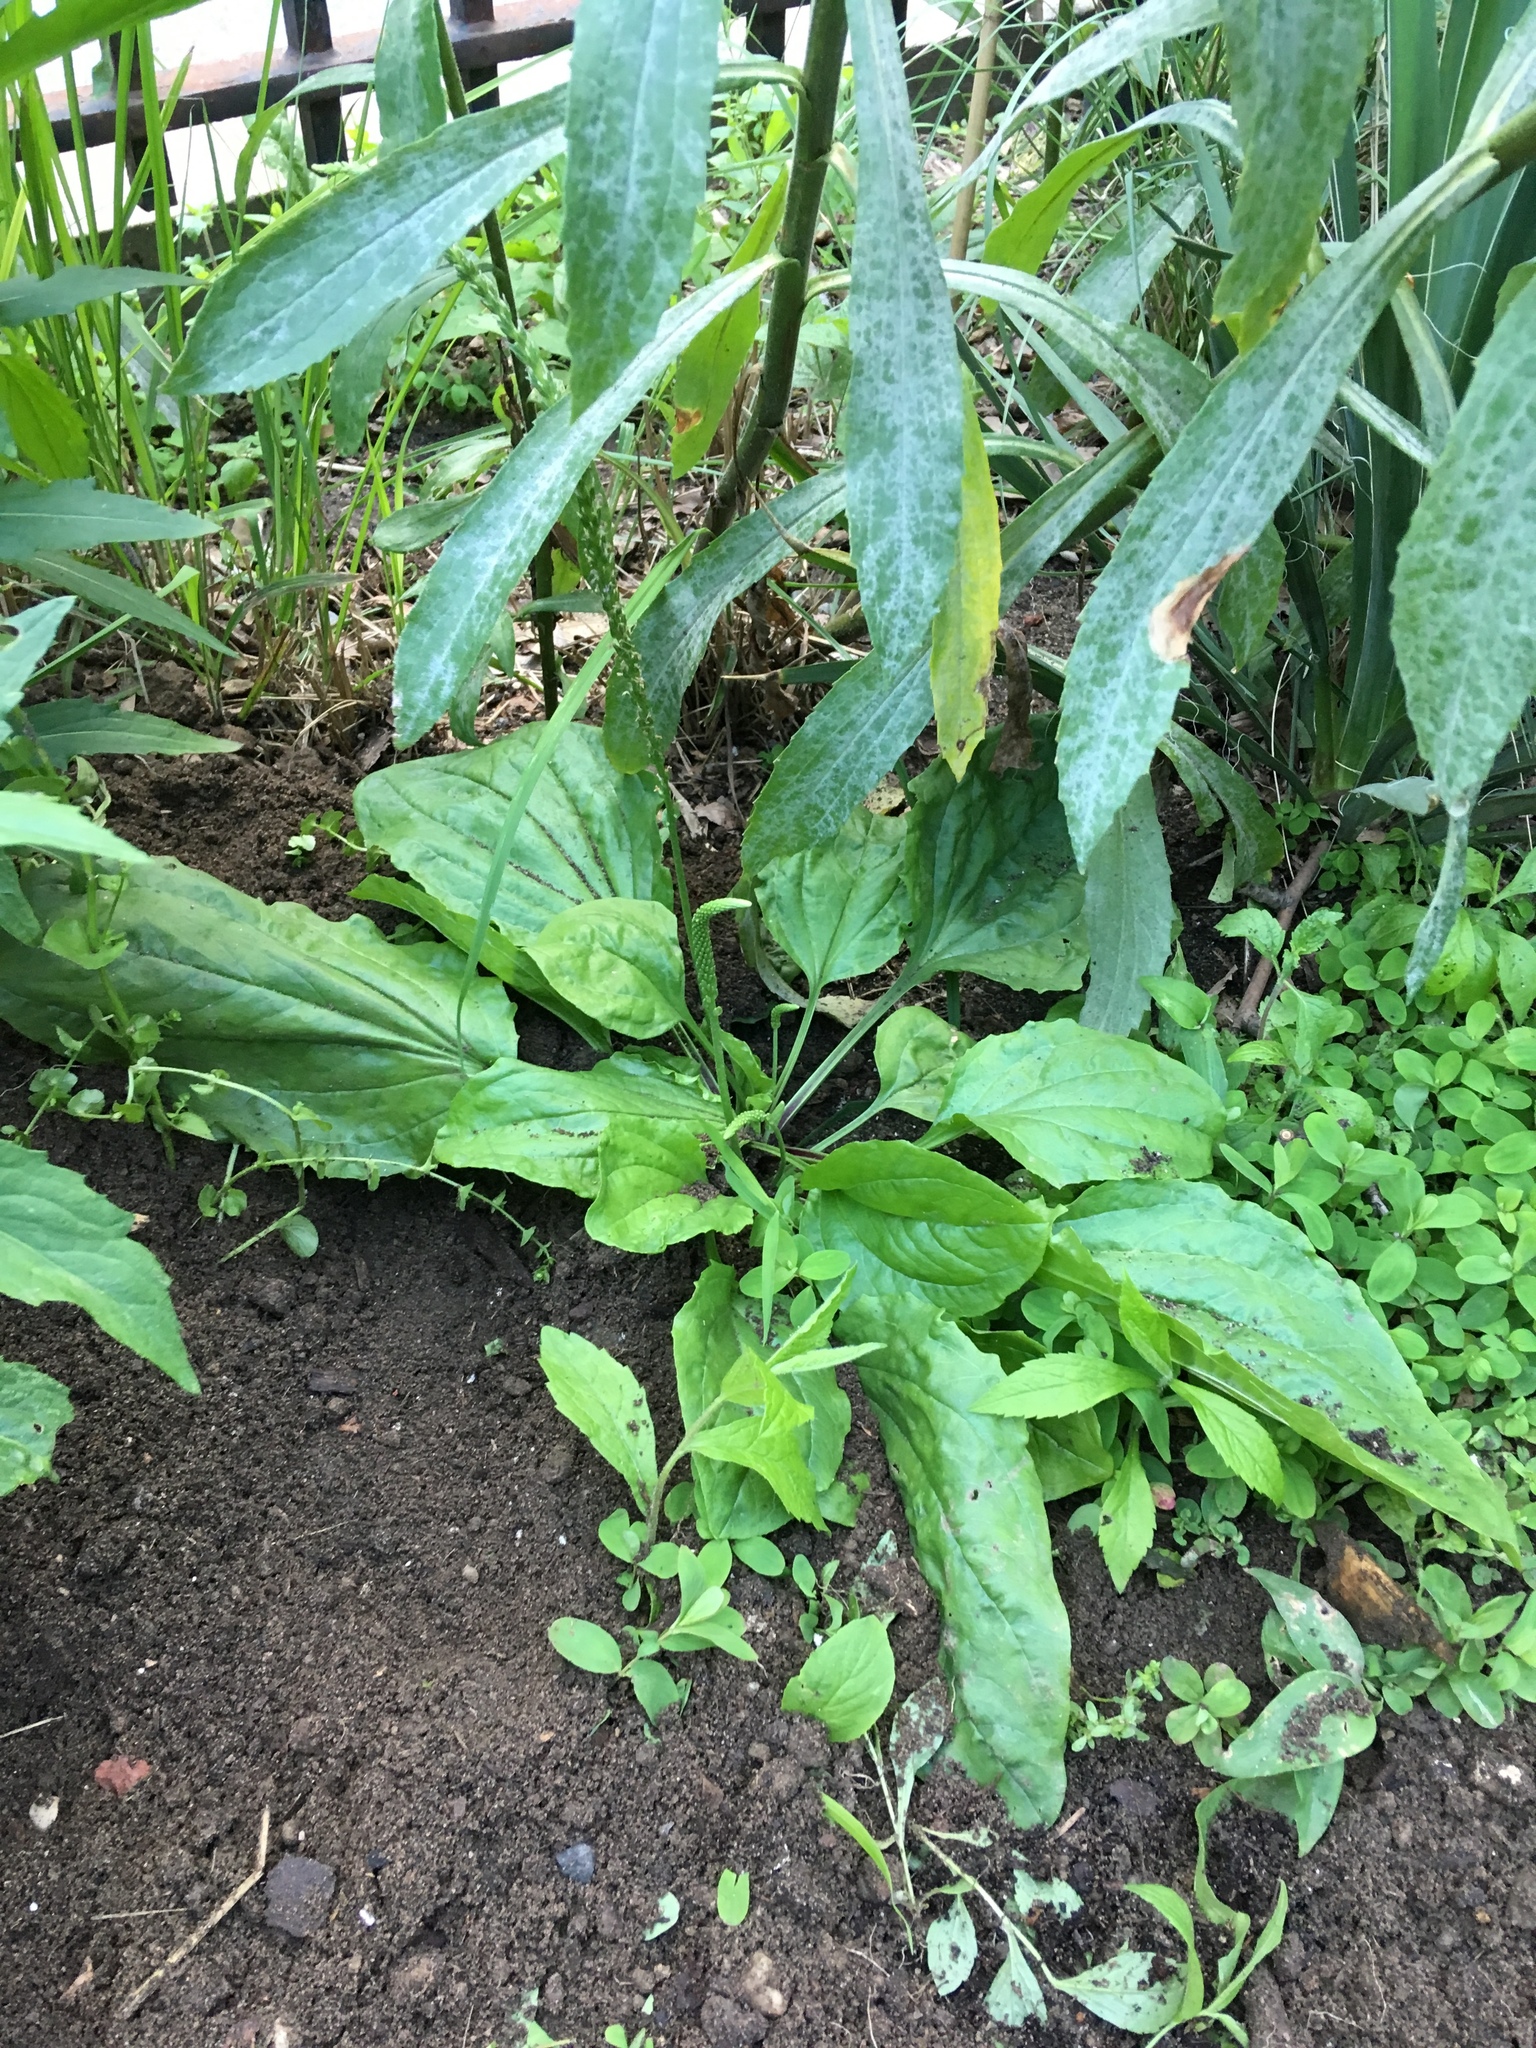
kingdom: Plantae
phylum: Tracheophyta
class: Magnoliopsida
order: Lamiales
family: Plantaginaceae
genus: Plantago
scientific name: Plantago rugelii
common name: American plantain
